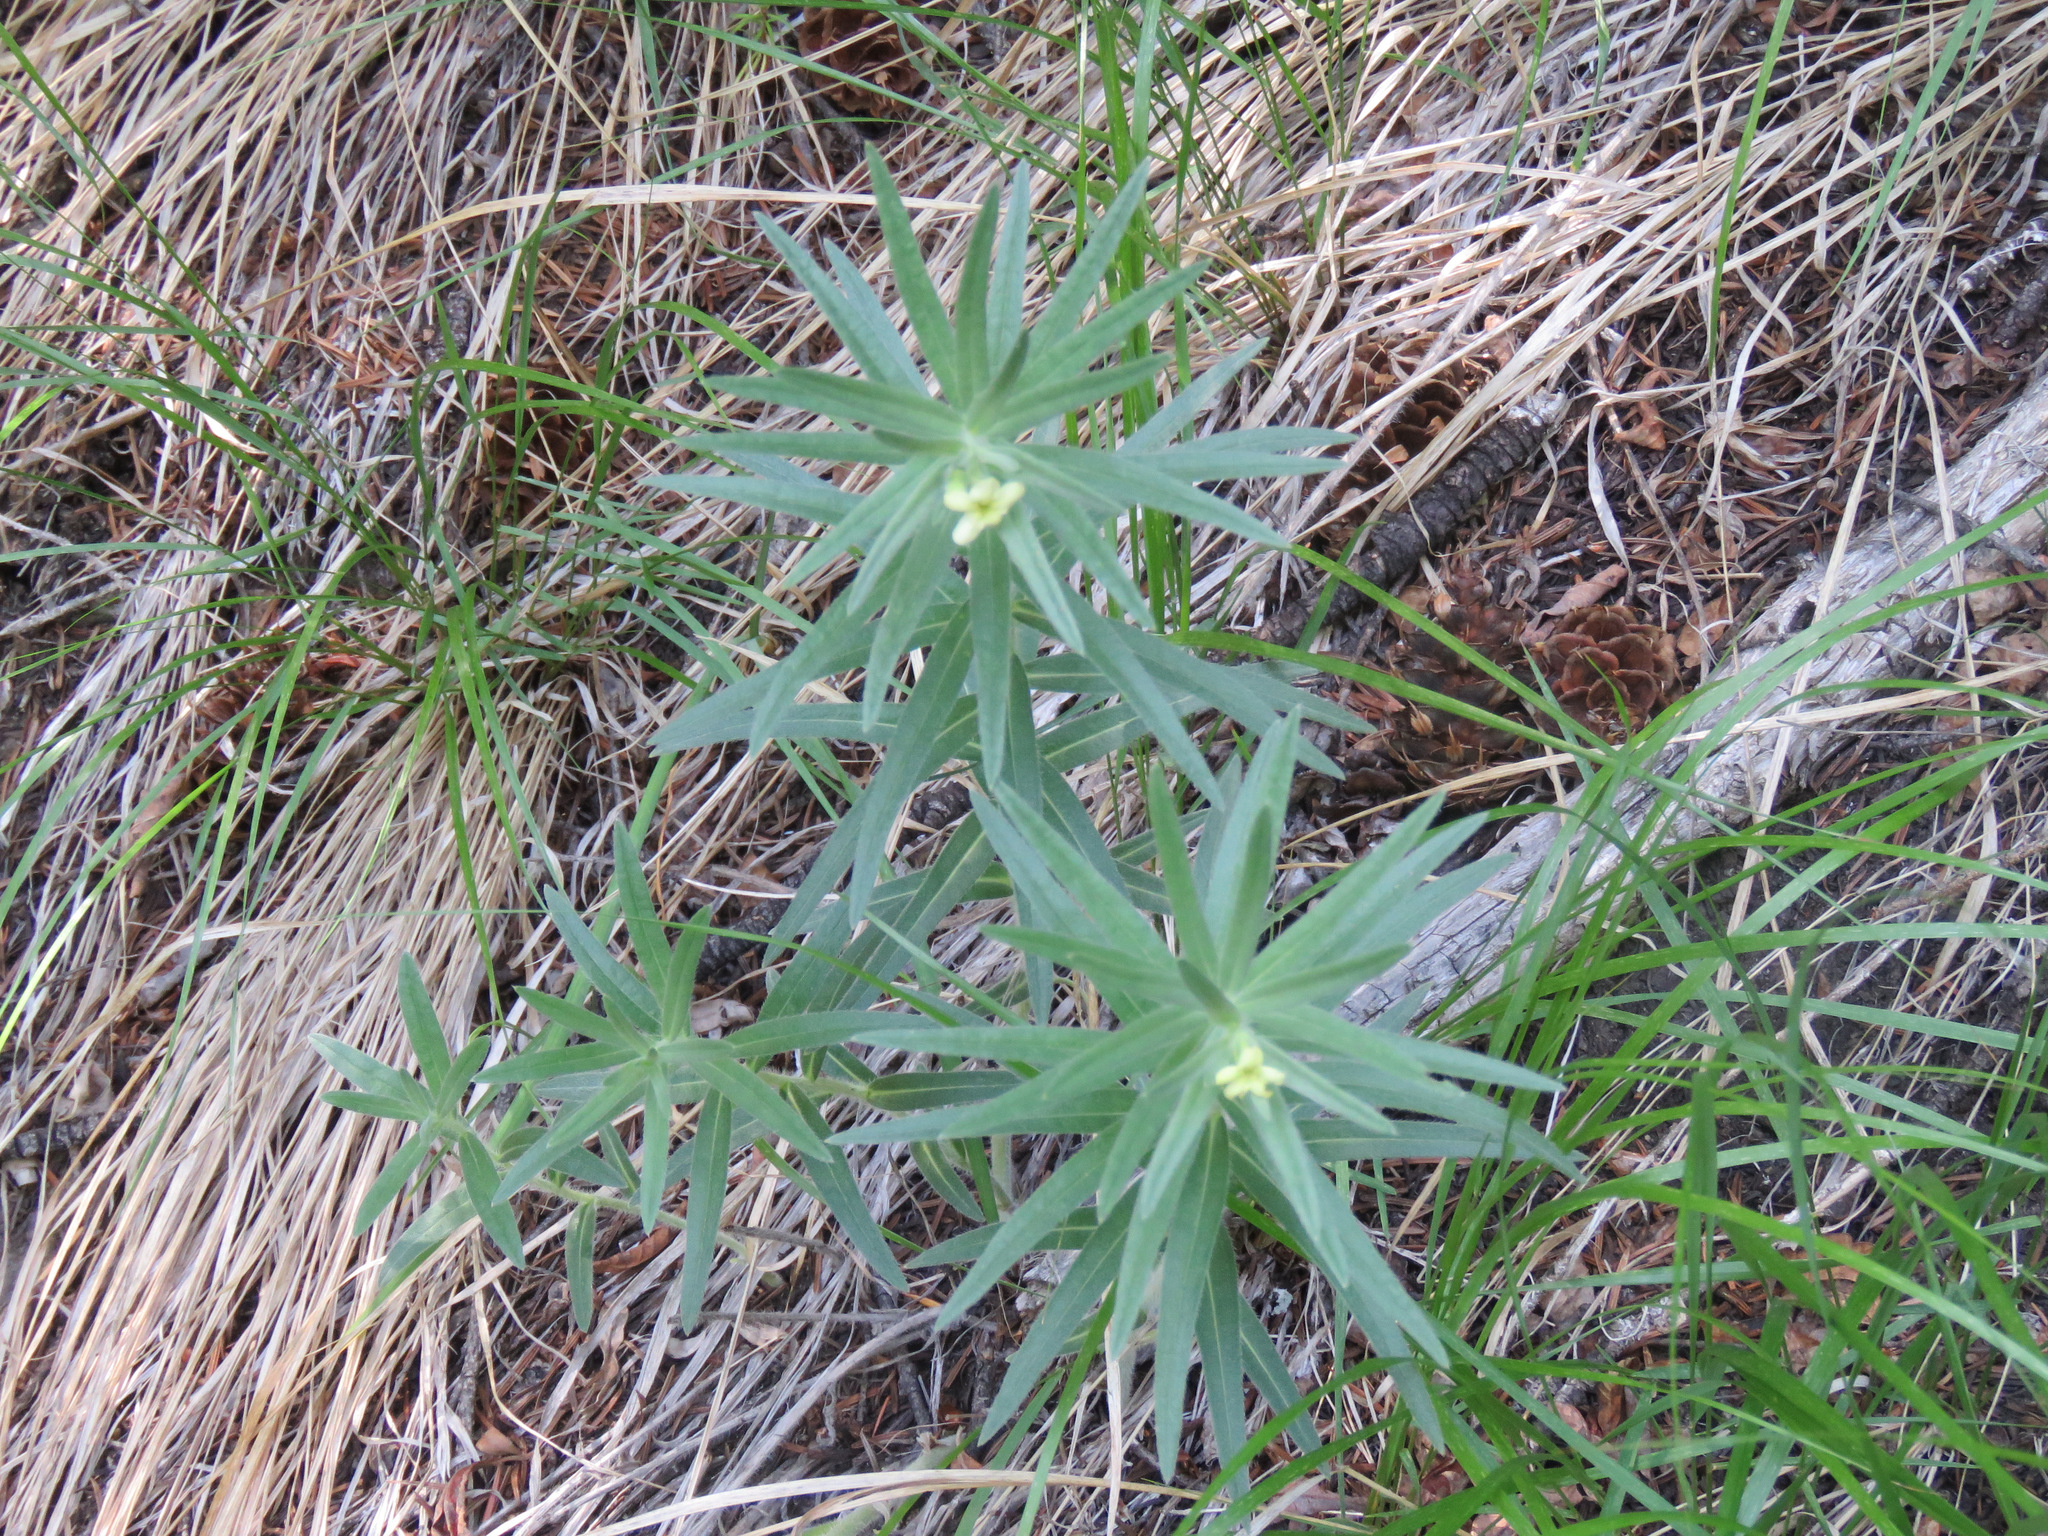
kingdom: Plantae
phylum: Tracheophyta
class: Magnoliopsida
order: Boraginales
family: Boraginaceae
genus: Lithospermum
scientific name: Lithospermum ruderale
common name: Western gromwell
